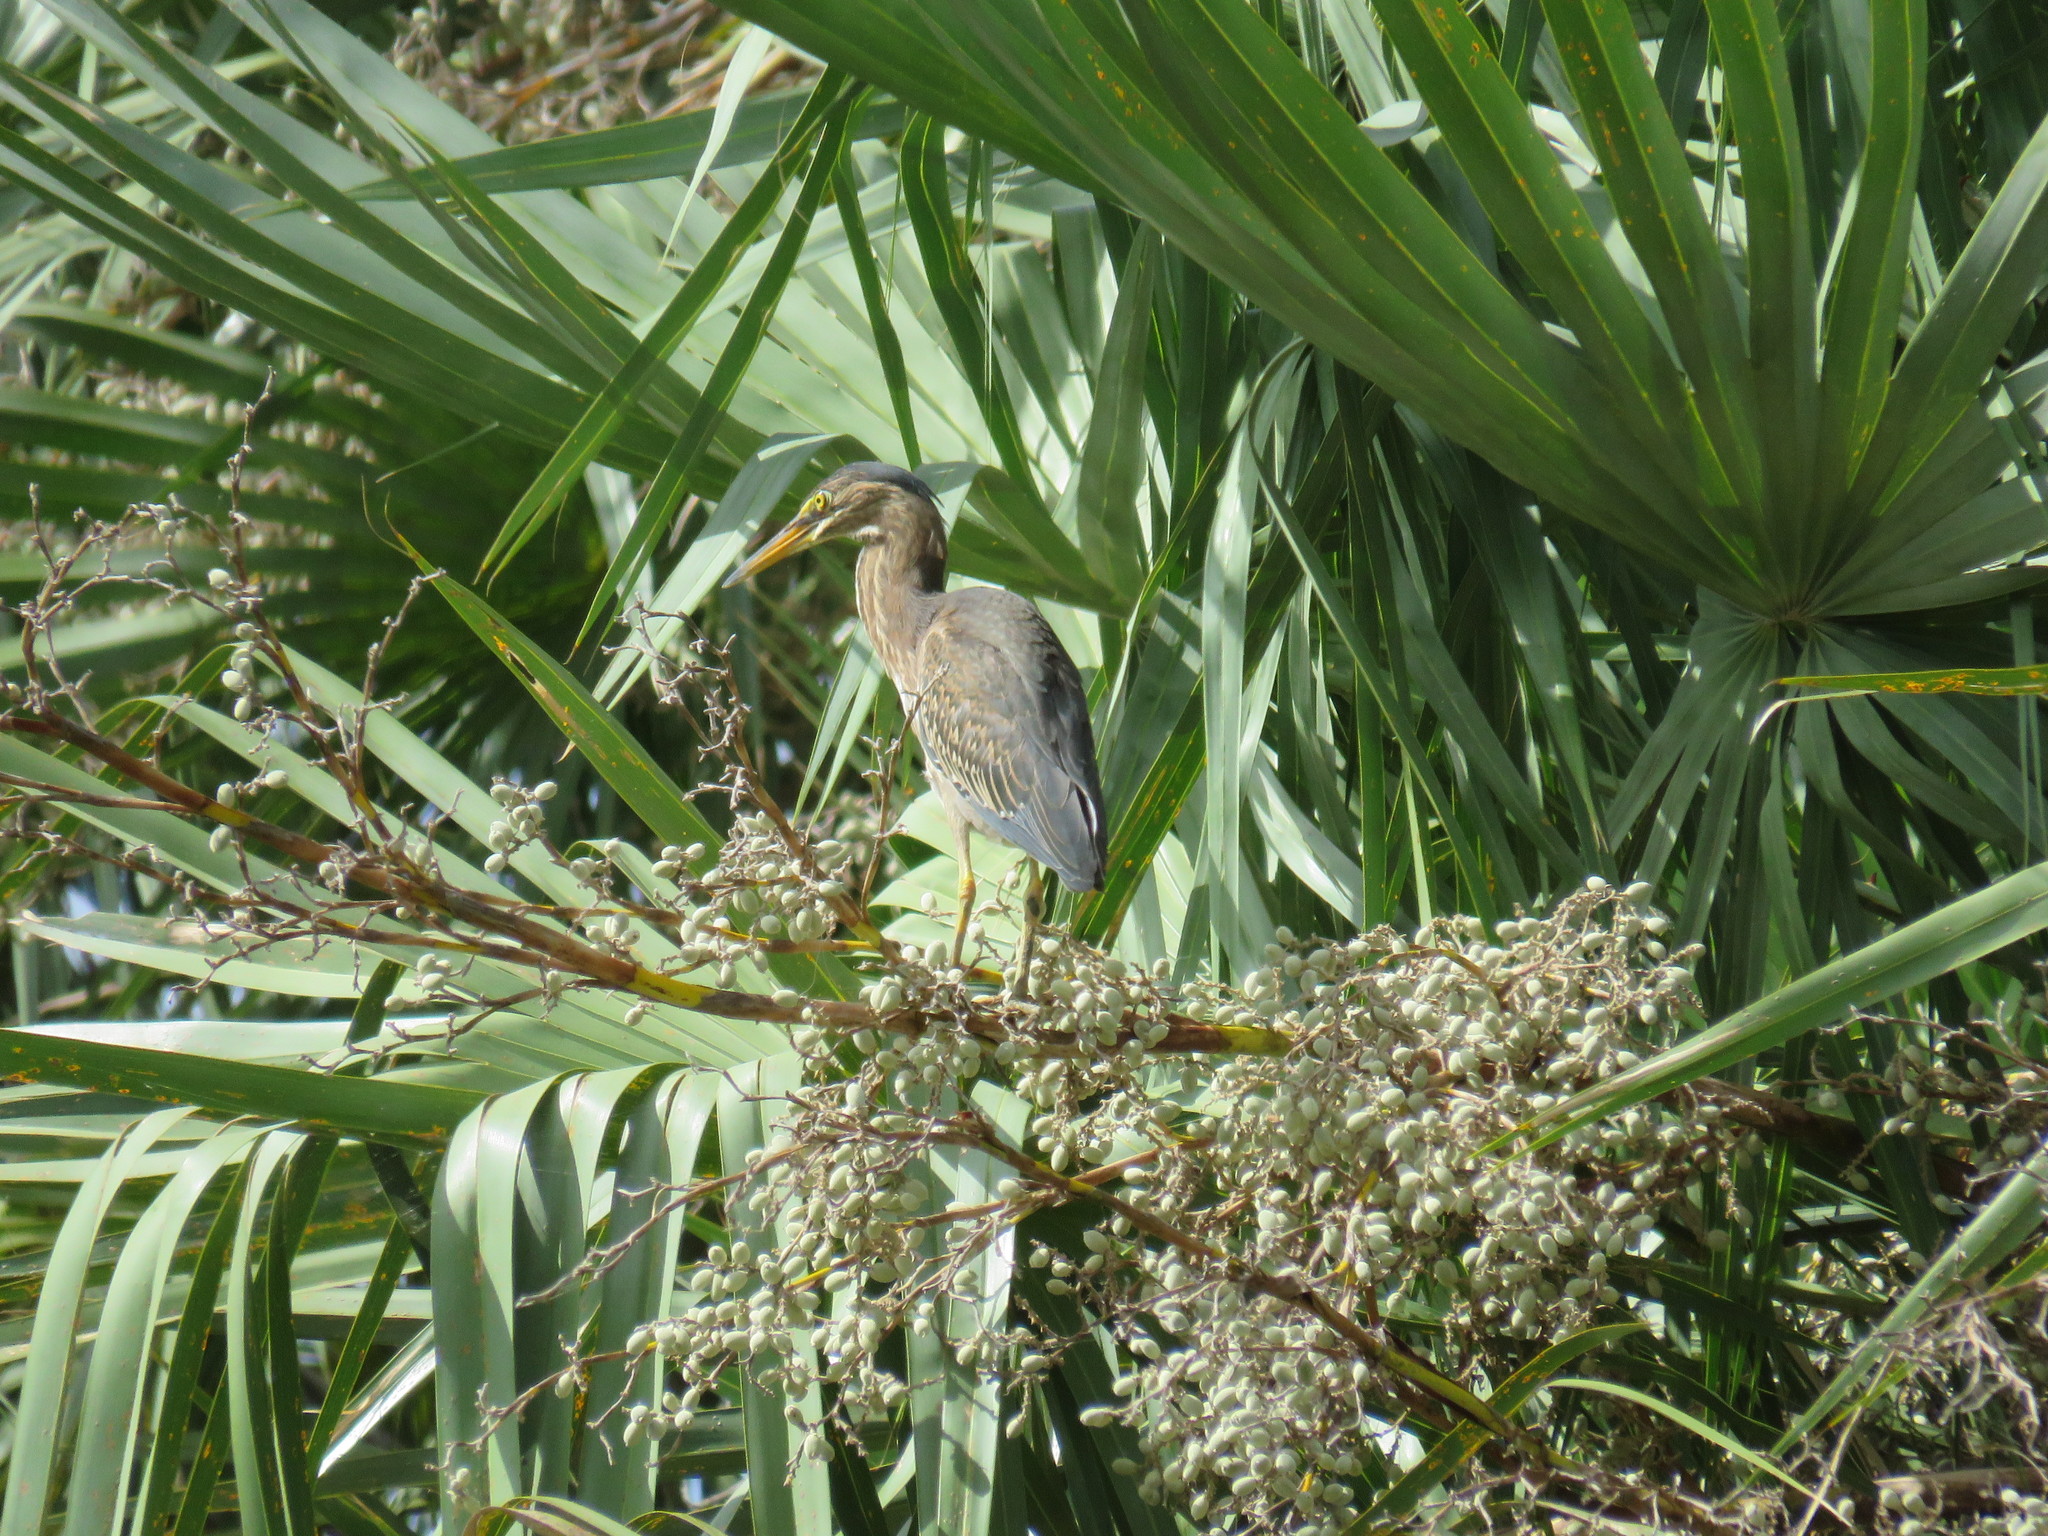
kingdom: Animalia
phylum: Chordata
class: Aves
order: Pelecaniformes
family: Ardeidae
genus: Butorides
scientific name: Butorides striata
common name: Striated heron
